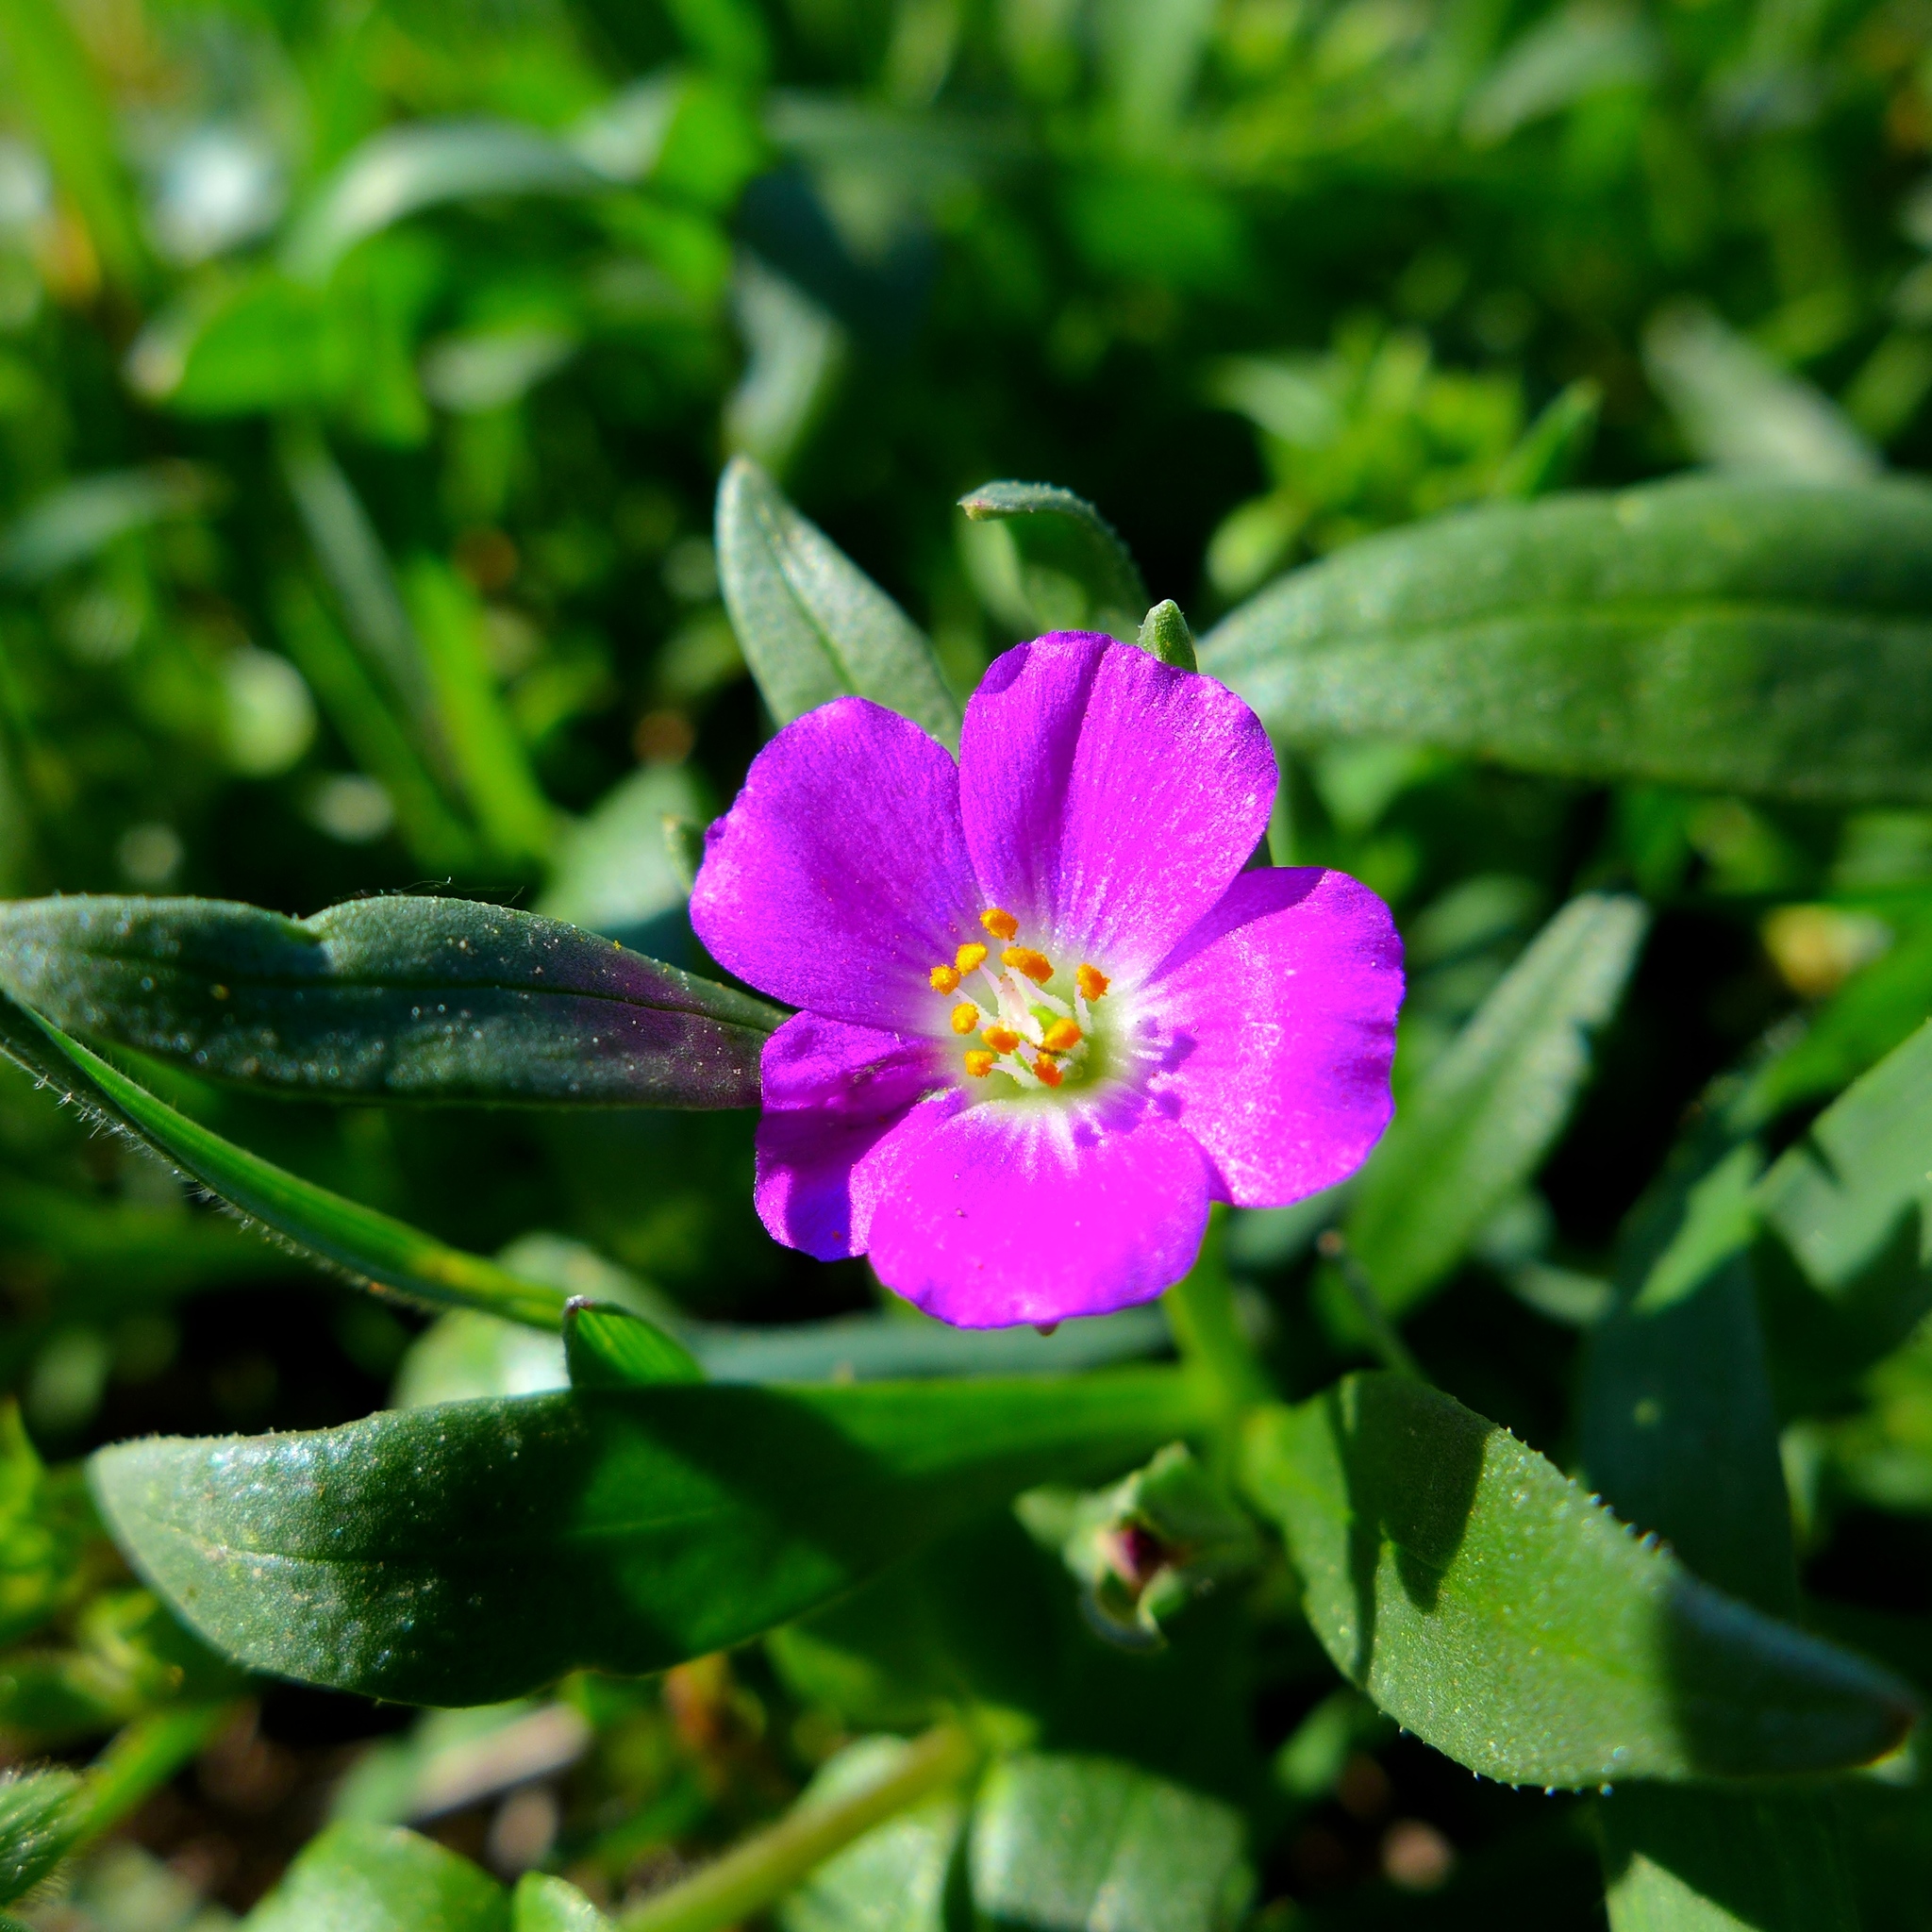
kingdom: Plantae
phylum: Tracheophyta
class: Magnoliopsida
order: Caryophyllales
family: Montiaceae
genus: Calandrinia
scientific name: Calandrinia menziesii
